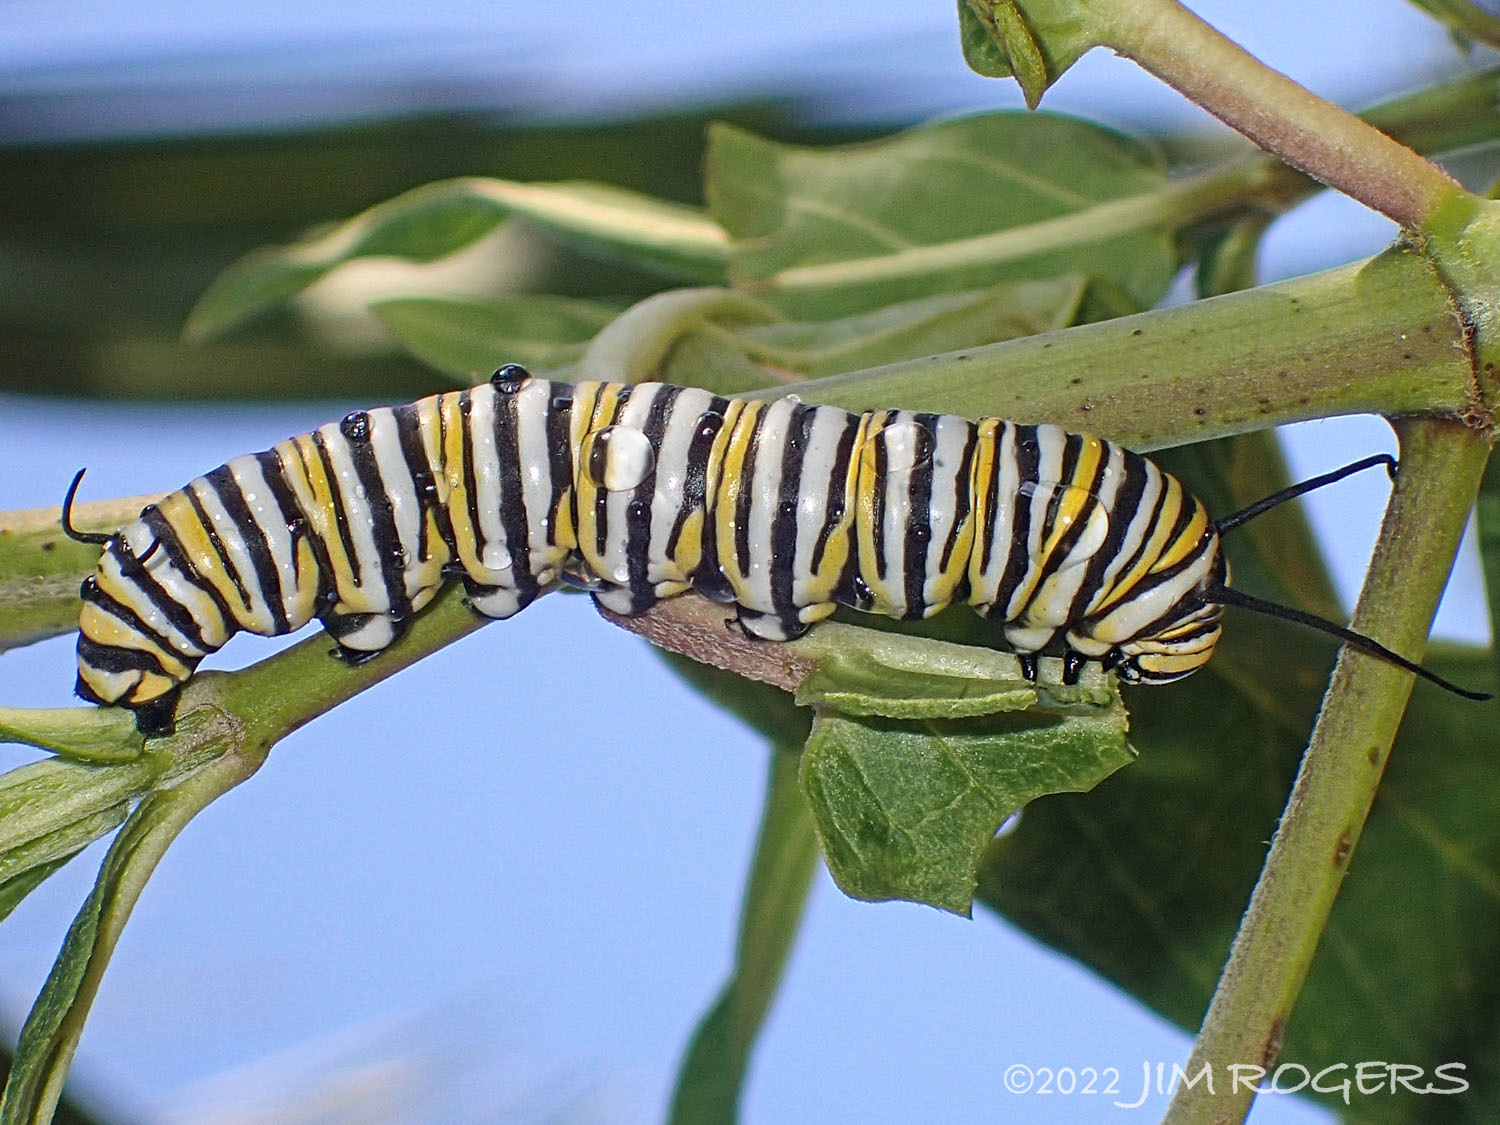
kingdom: Animalia
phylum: Arthropoda
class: Insecta
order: Lepidoptera
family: Nymphalidae
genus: Danaus
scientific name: Danaus plexippus
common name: Monarch
